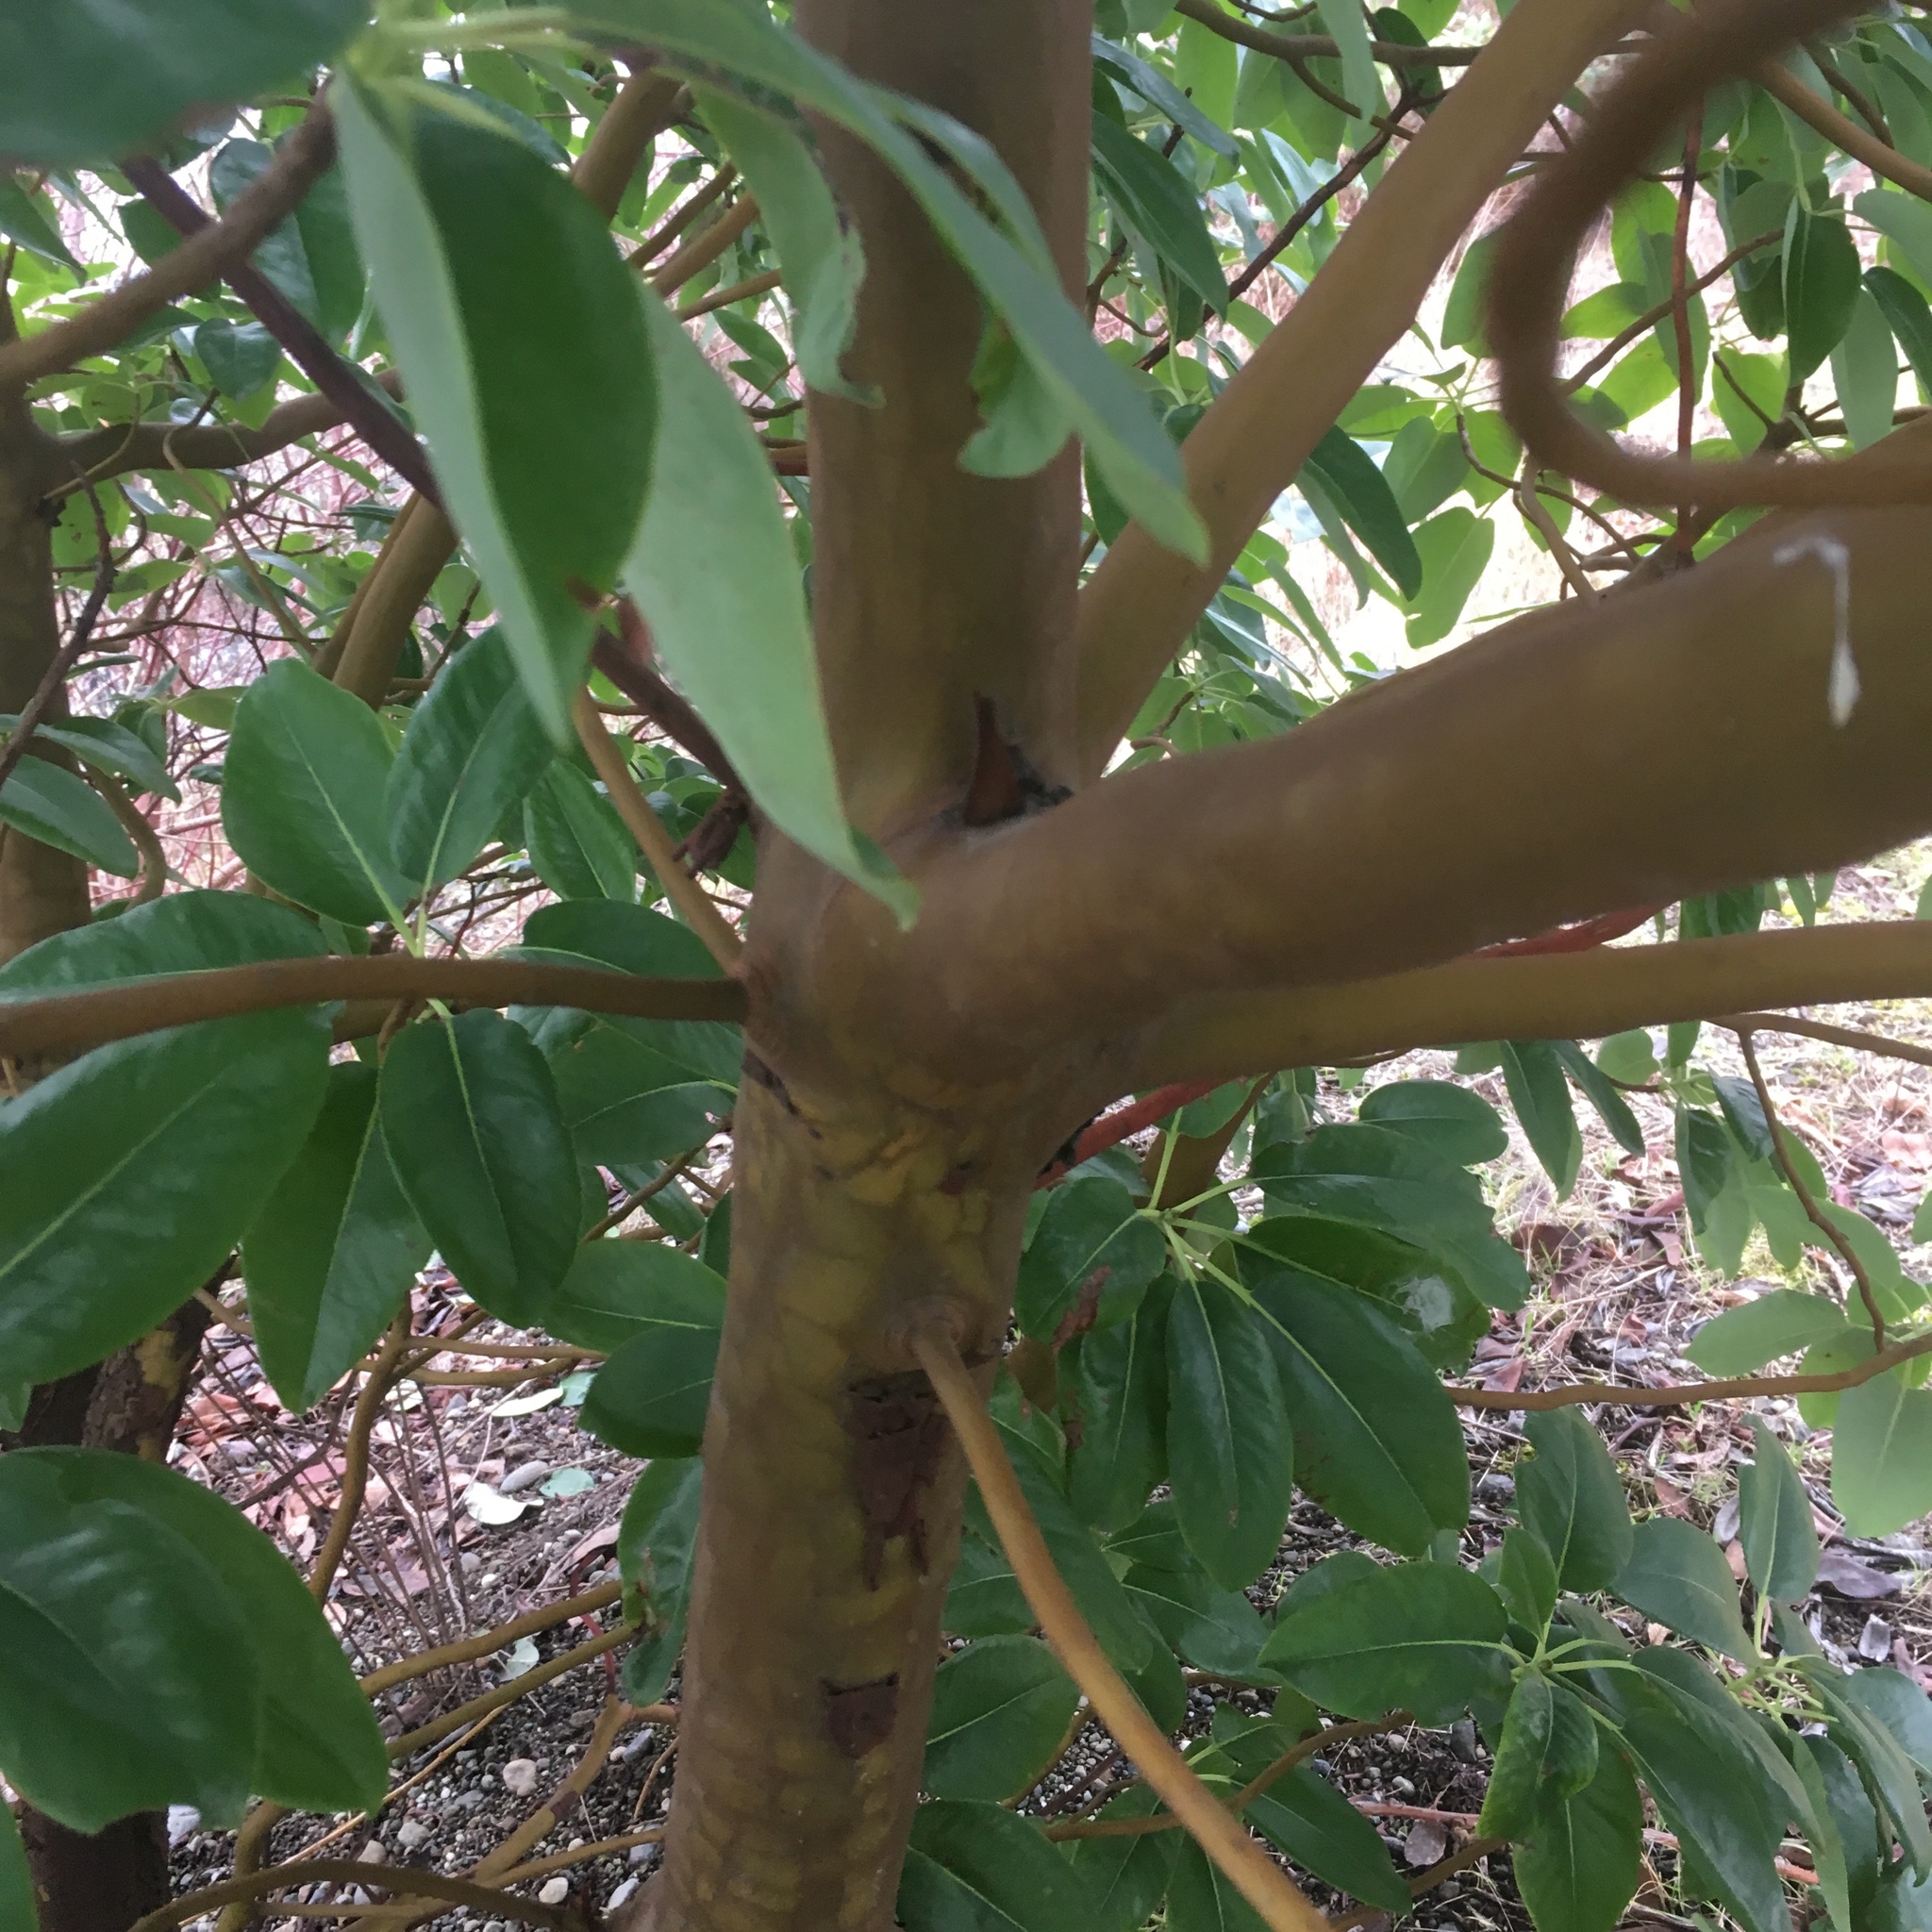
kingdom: Plantae
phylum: Tracheophyta
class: Magnoliopsida
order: Ericales
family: Ericaceae
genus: Arbutus
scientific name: Arbutus menziesii
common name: Pacific madrone
